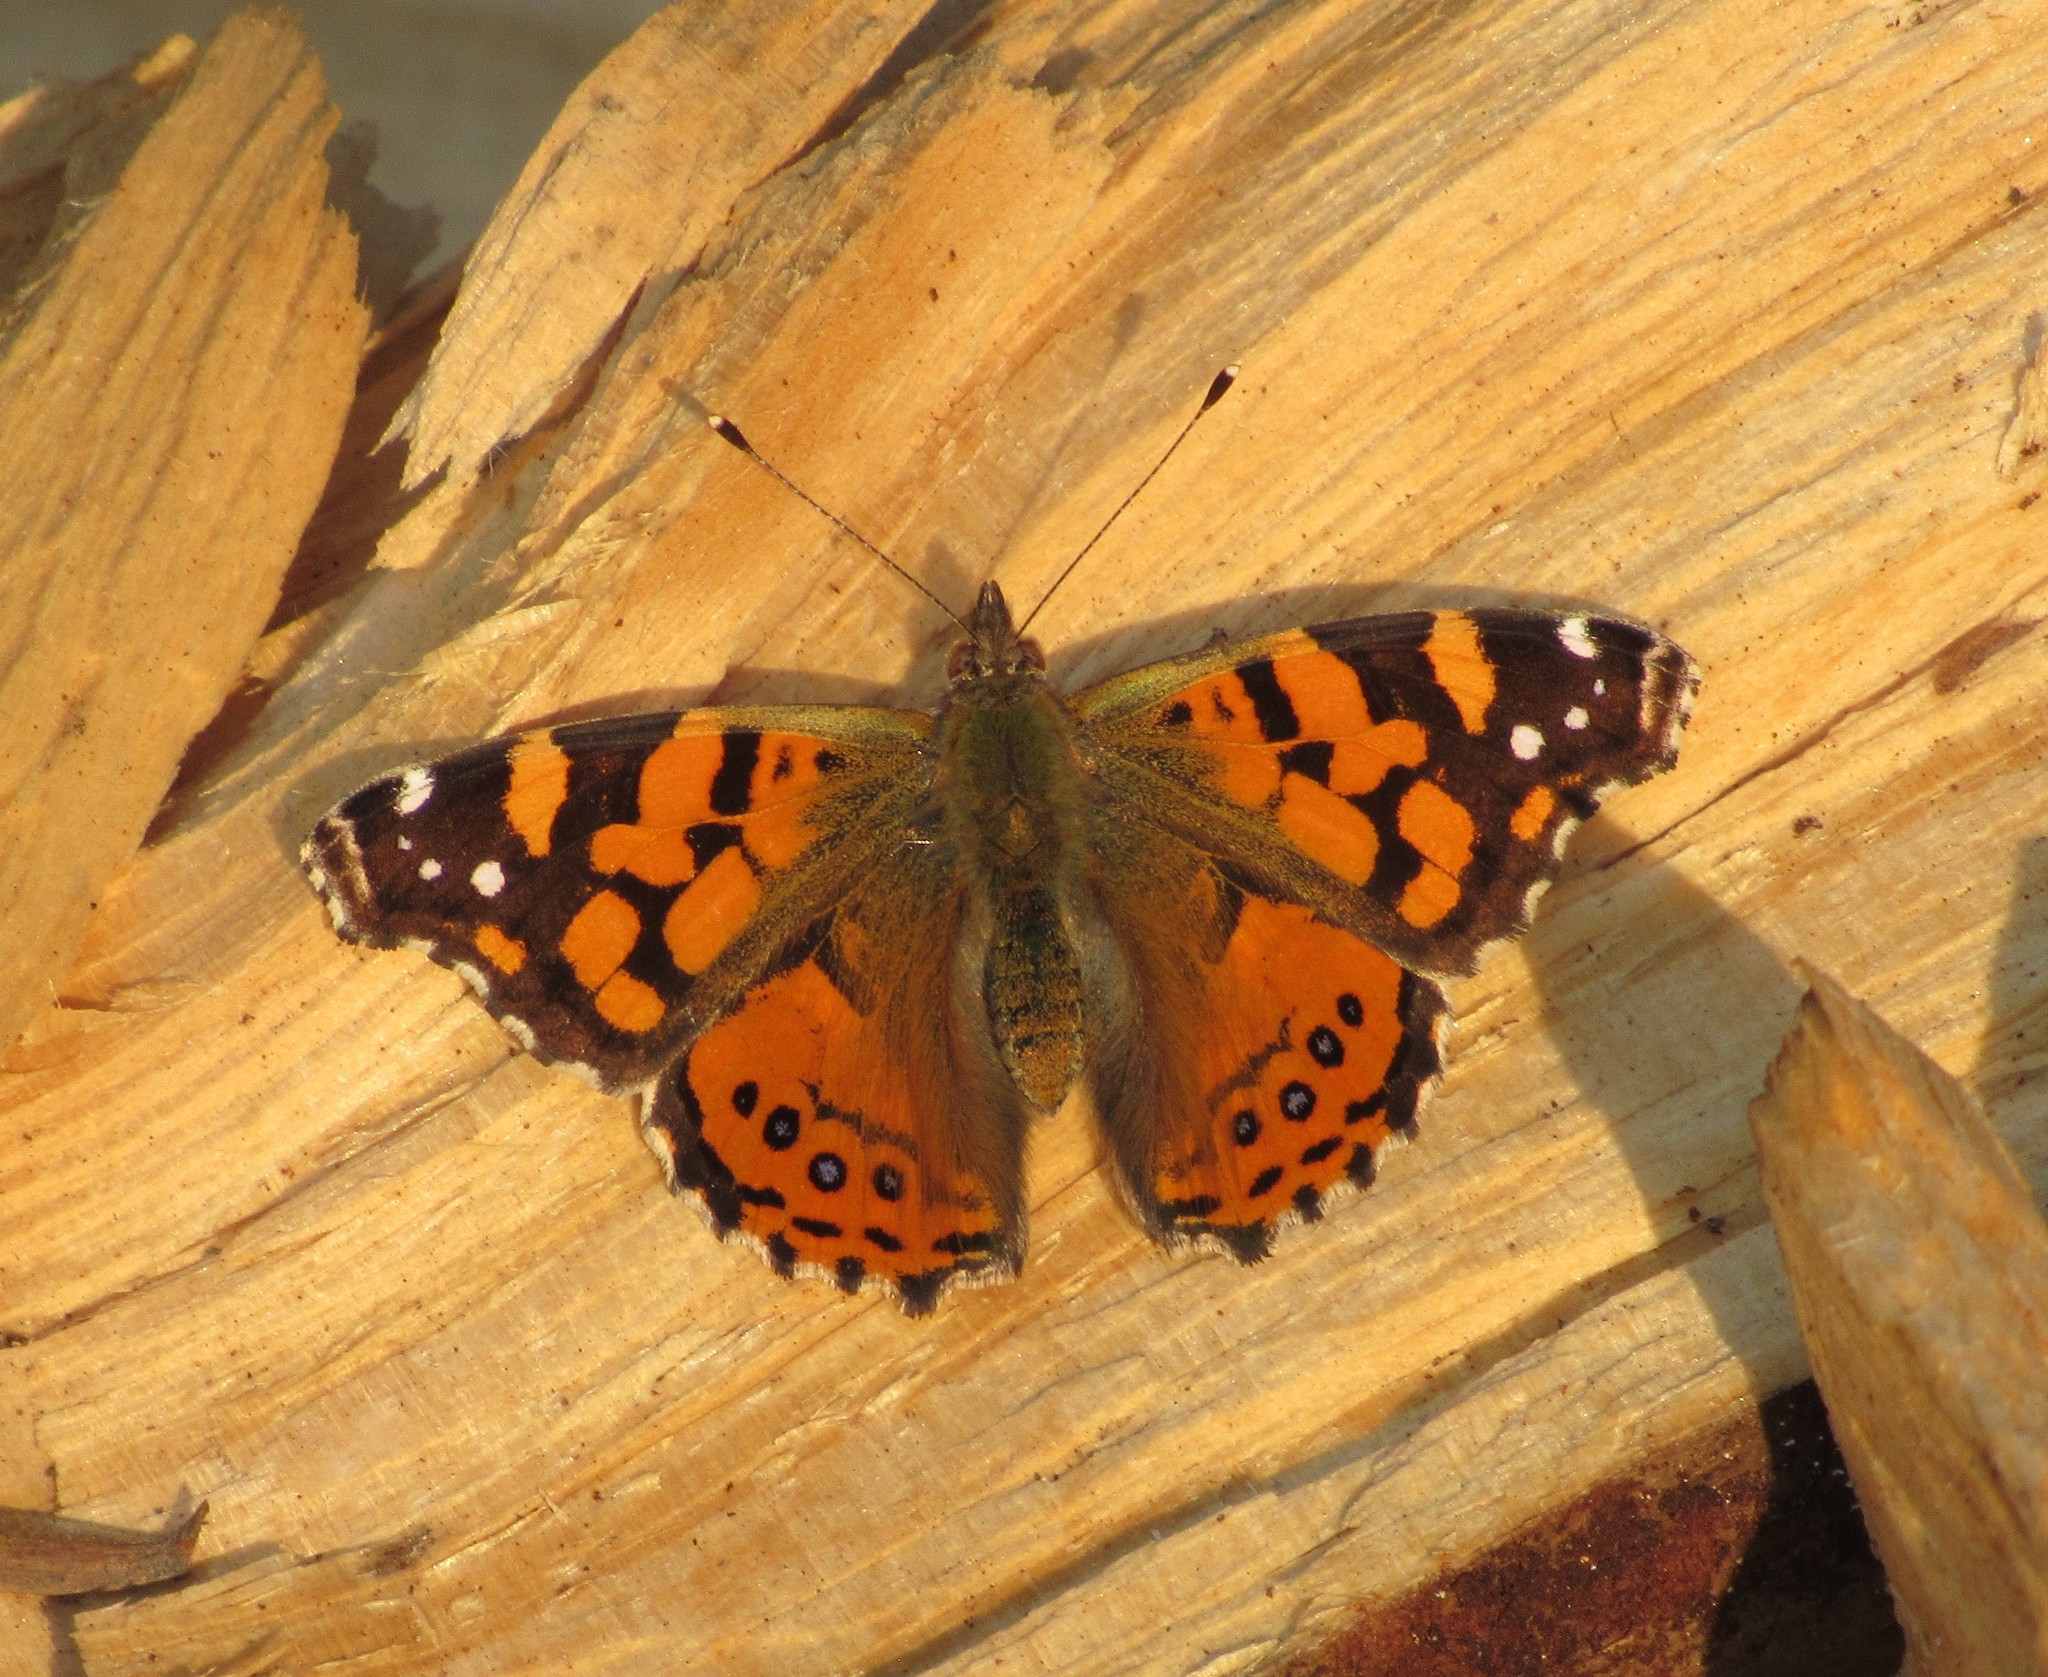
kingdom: Animalia
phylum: Arthropoda
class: Insecta
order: Lepidoptera
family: Nymphalidae
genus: Vanessa
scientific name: Vanessa carye
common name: Subtropical lady
